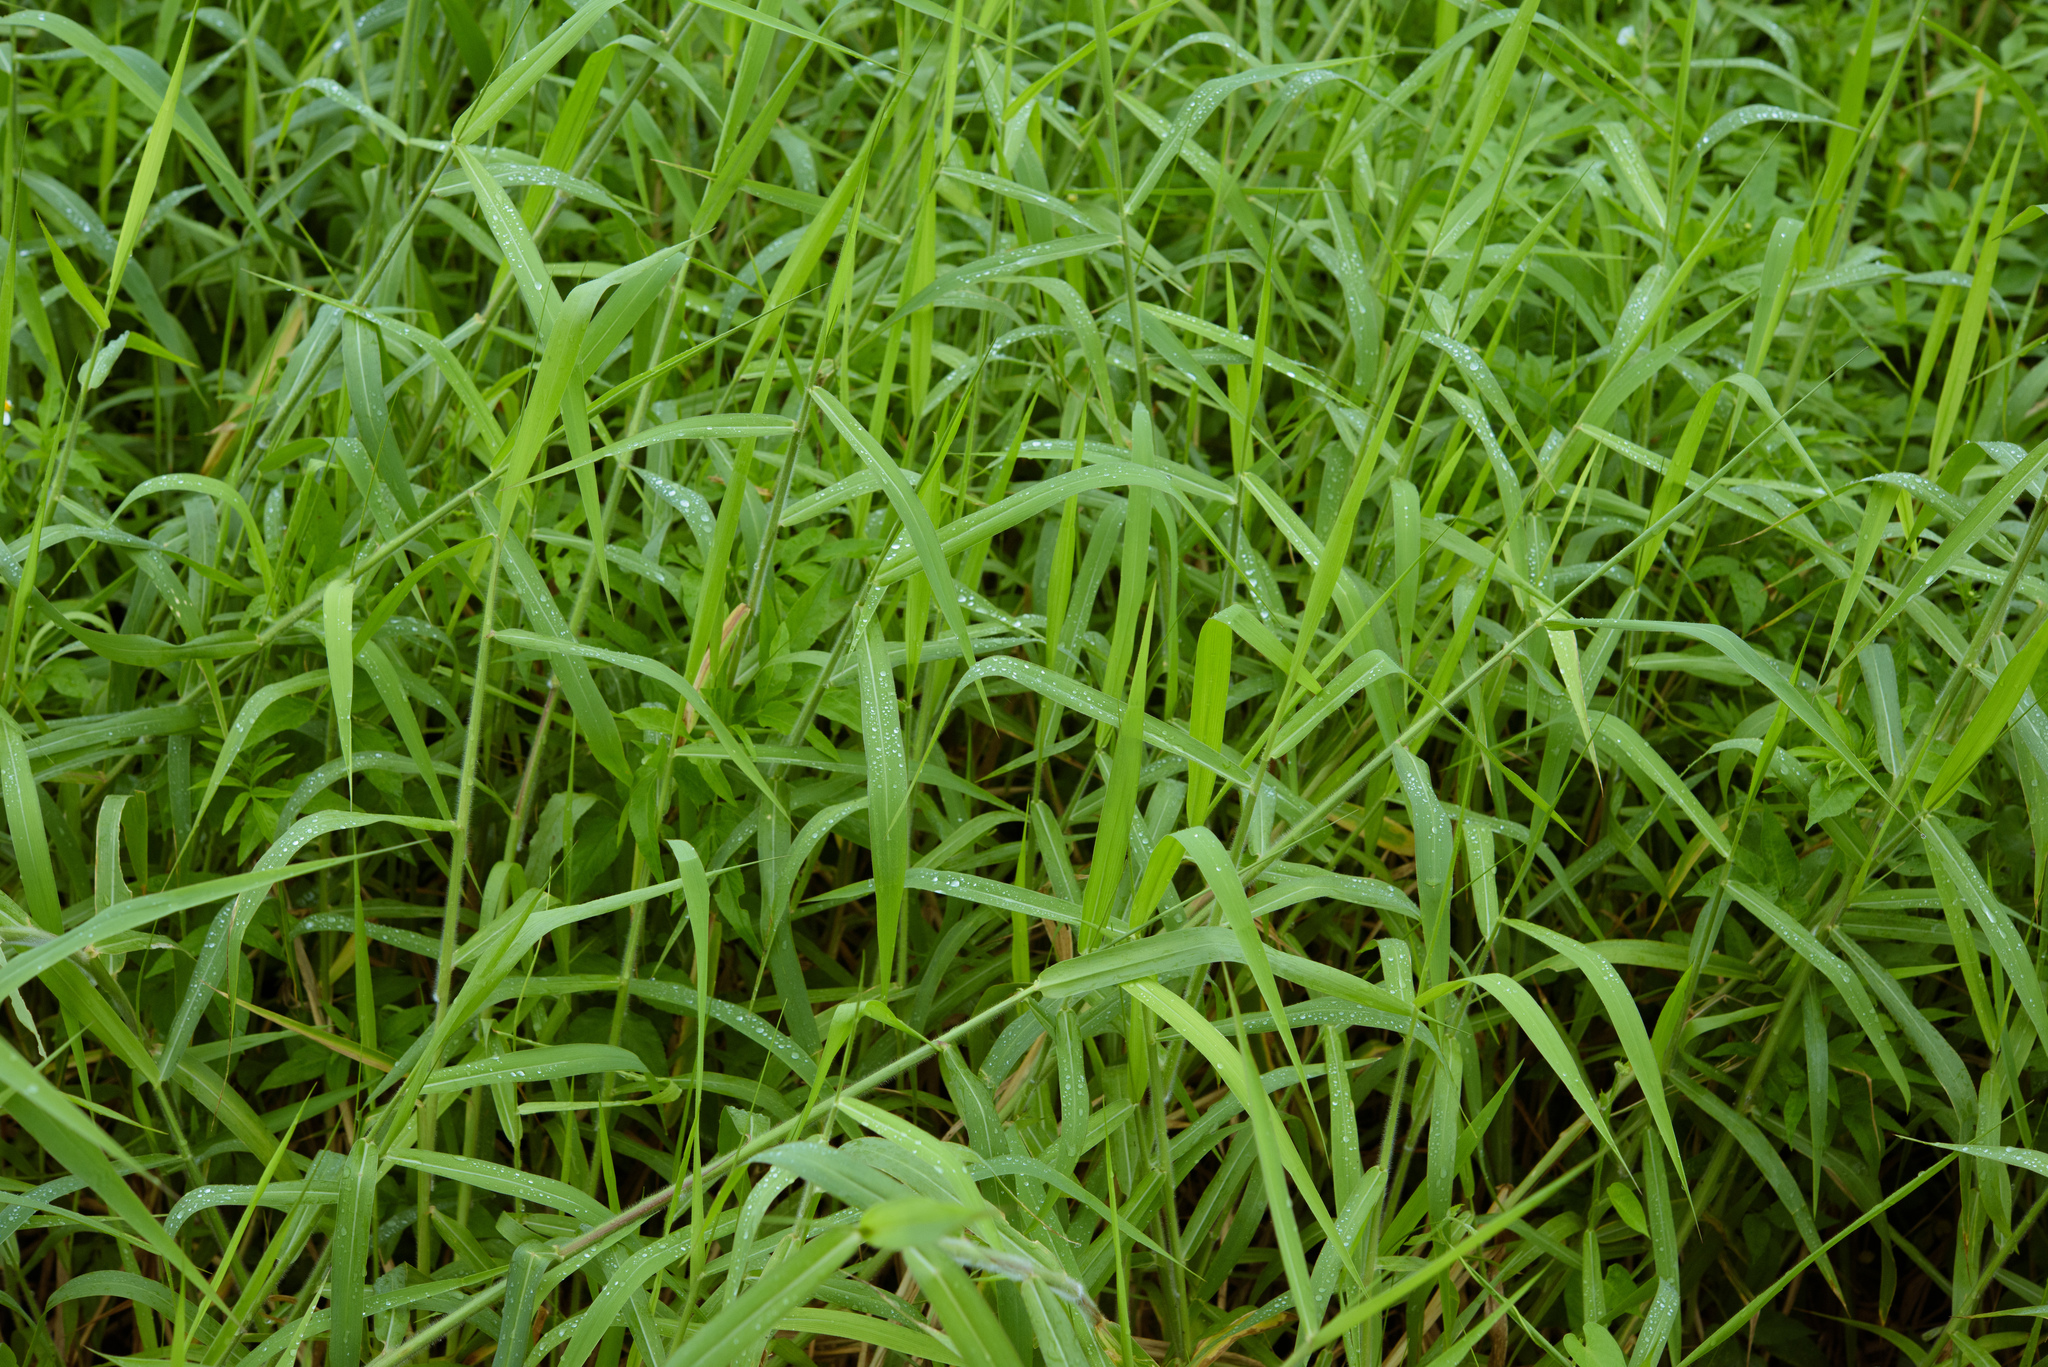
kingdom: Plantae
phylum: Tracheophyta
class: Liliopsida
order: Poales
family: Poaceae
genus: Urochloa
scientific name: Urochloa mutica
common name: Para grass
